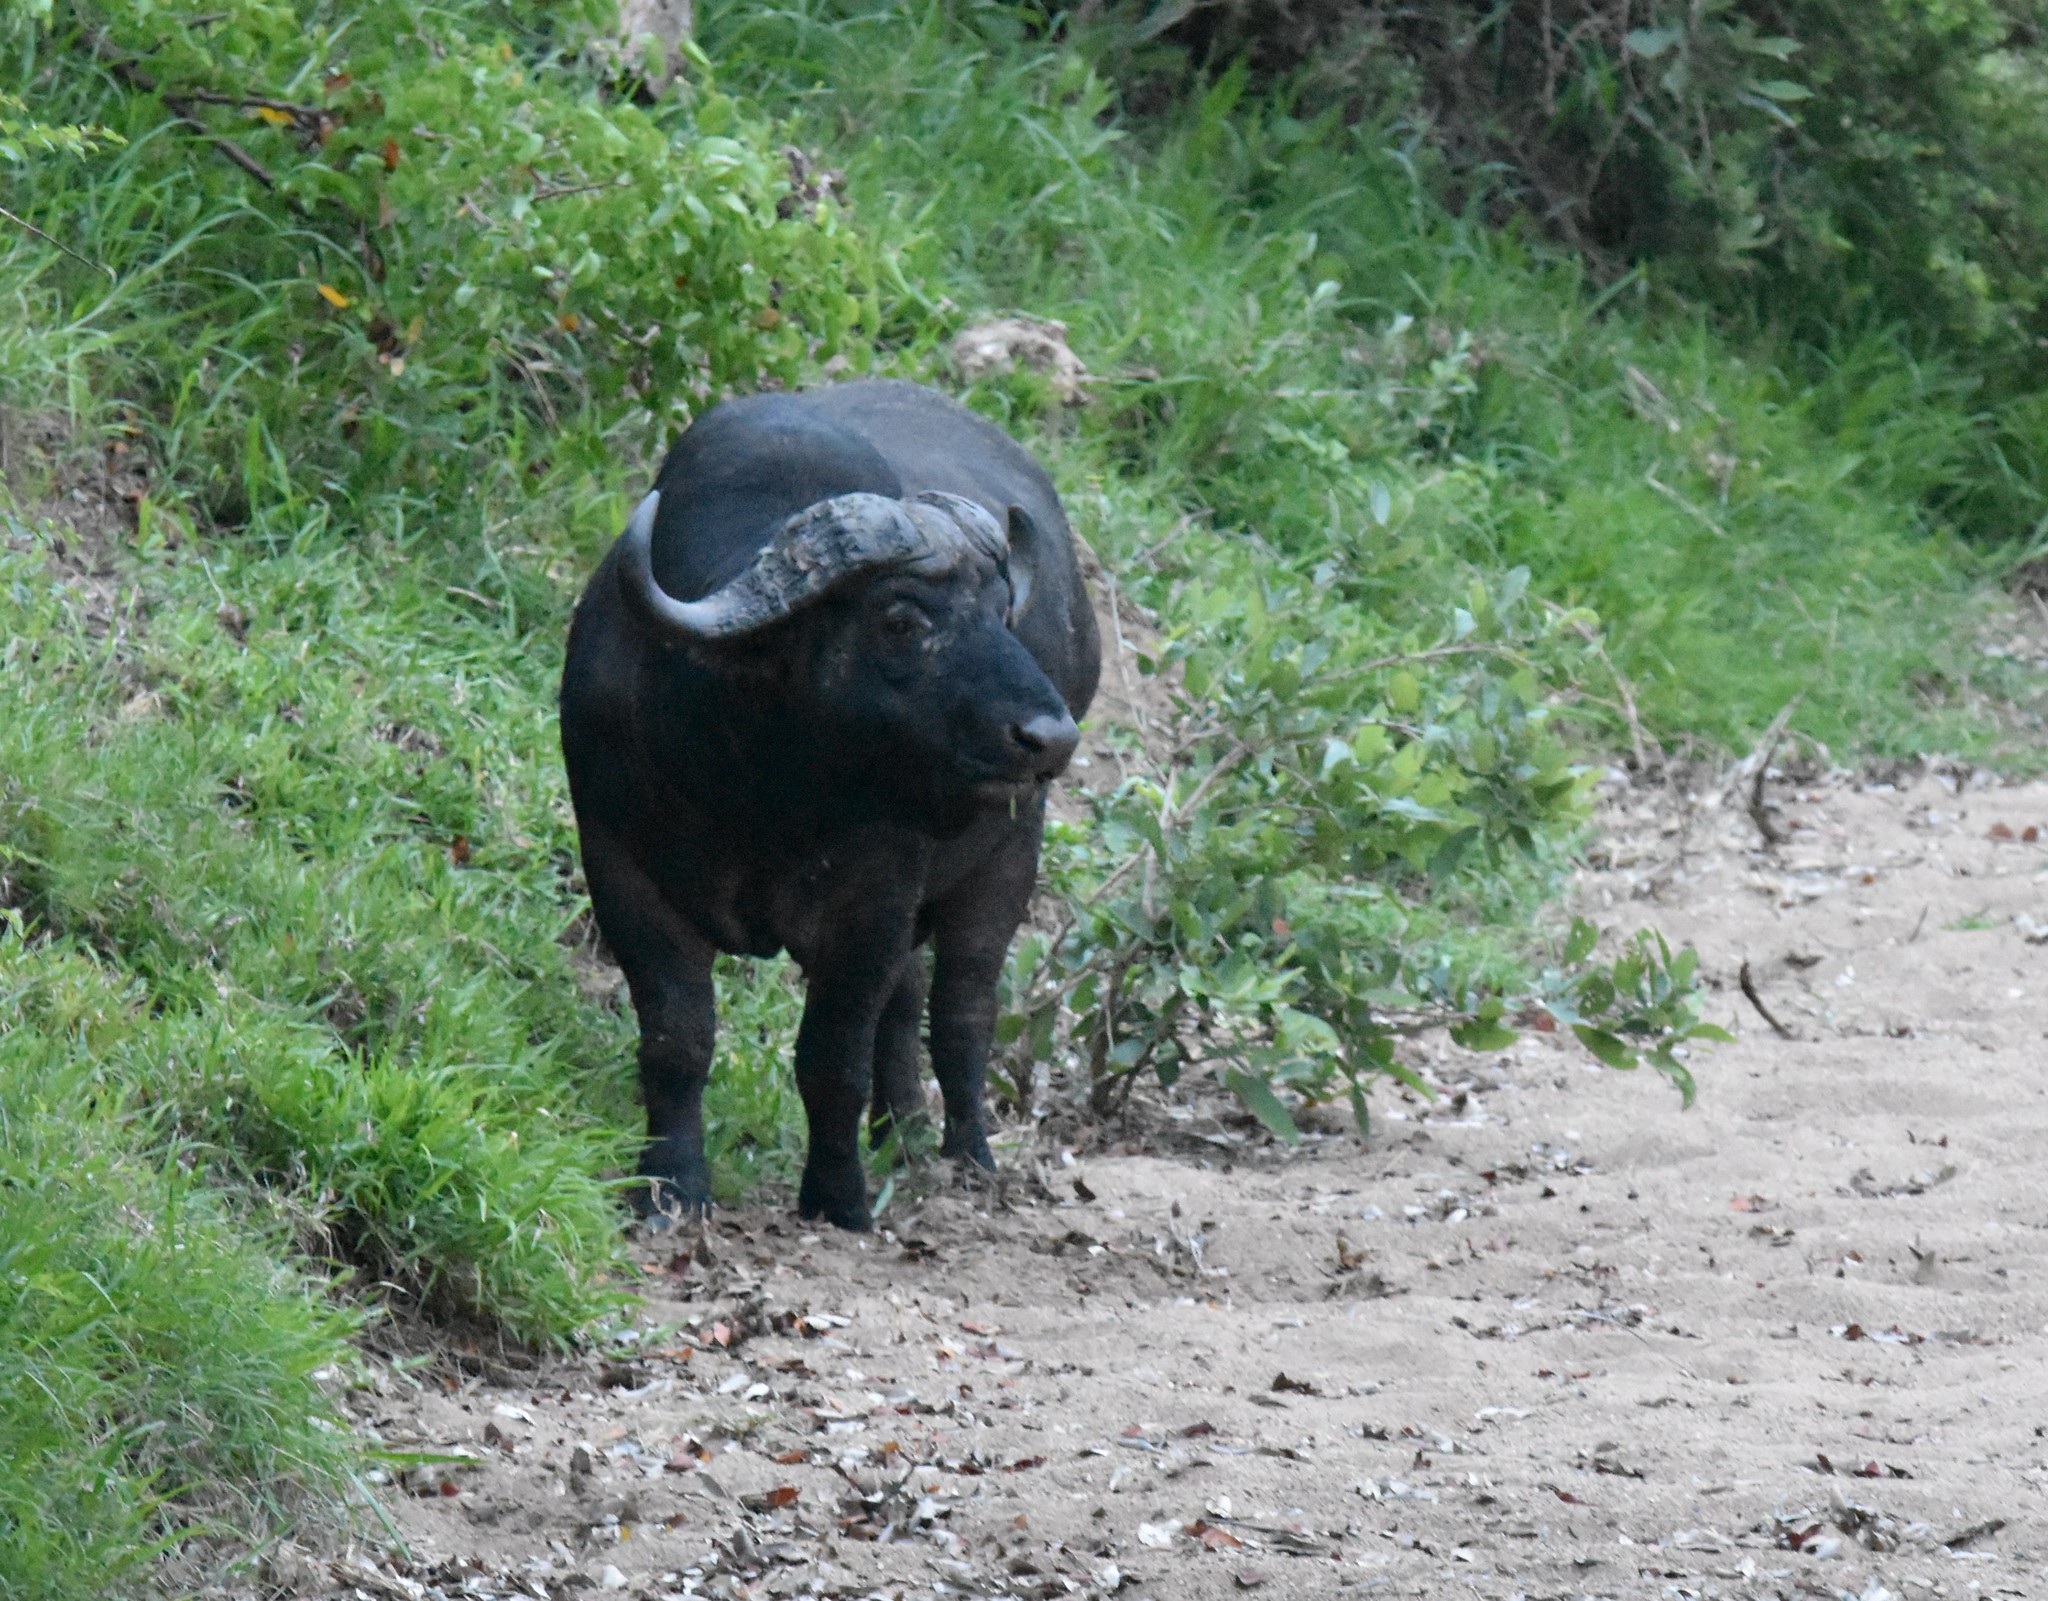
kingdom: Animalia
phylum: Chordata
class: Mammalia
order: Artiodactyla
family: Bovidae
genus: Syncerus
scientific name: Syncerus caffer
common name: African buffalo
